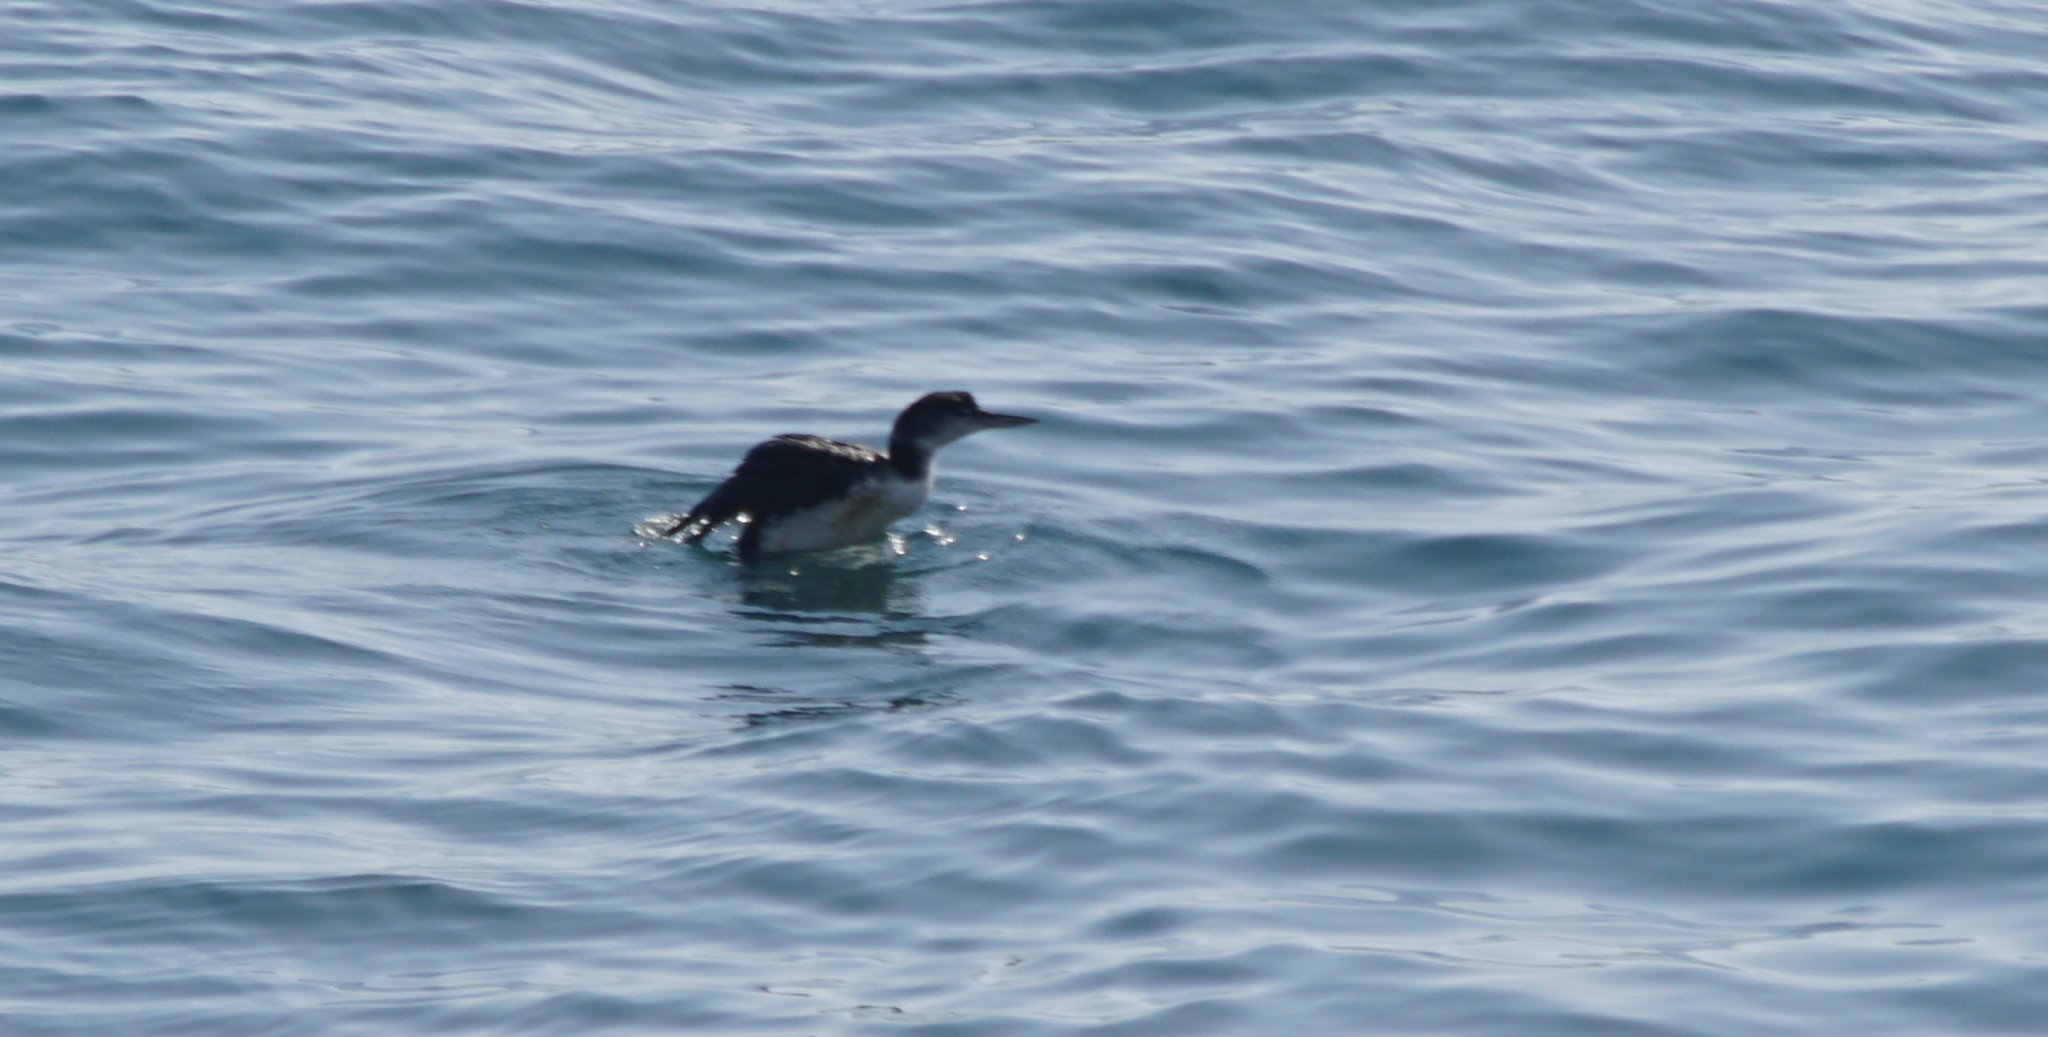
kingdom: Animalia
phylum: Chordata
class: Aves
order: Gaviiformes
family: Gaviidae
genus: Gavia
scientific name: Gavia immer
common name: Common loon
